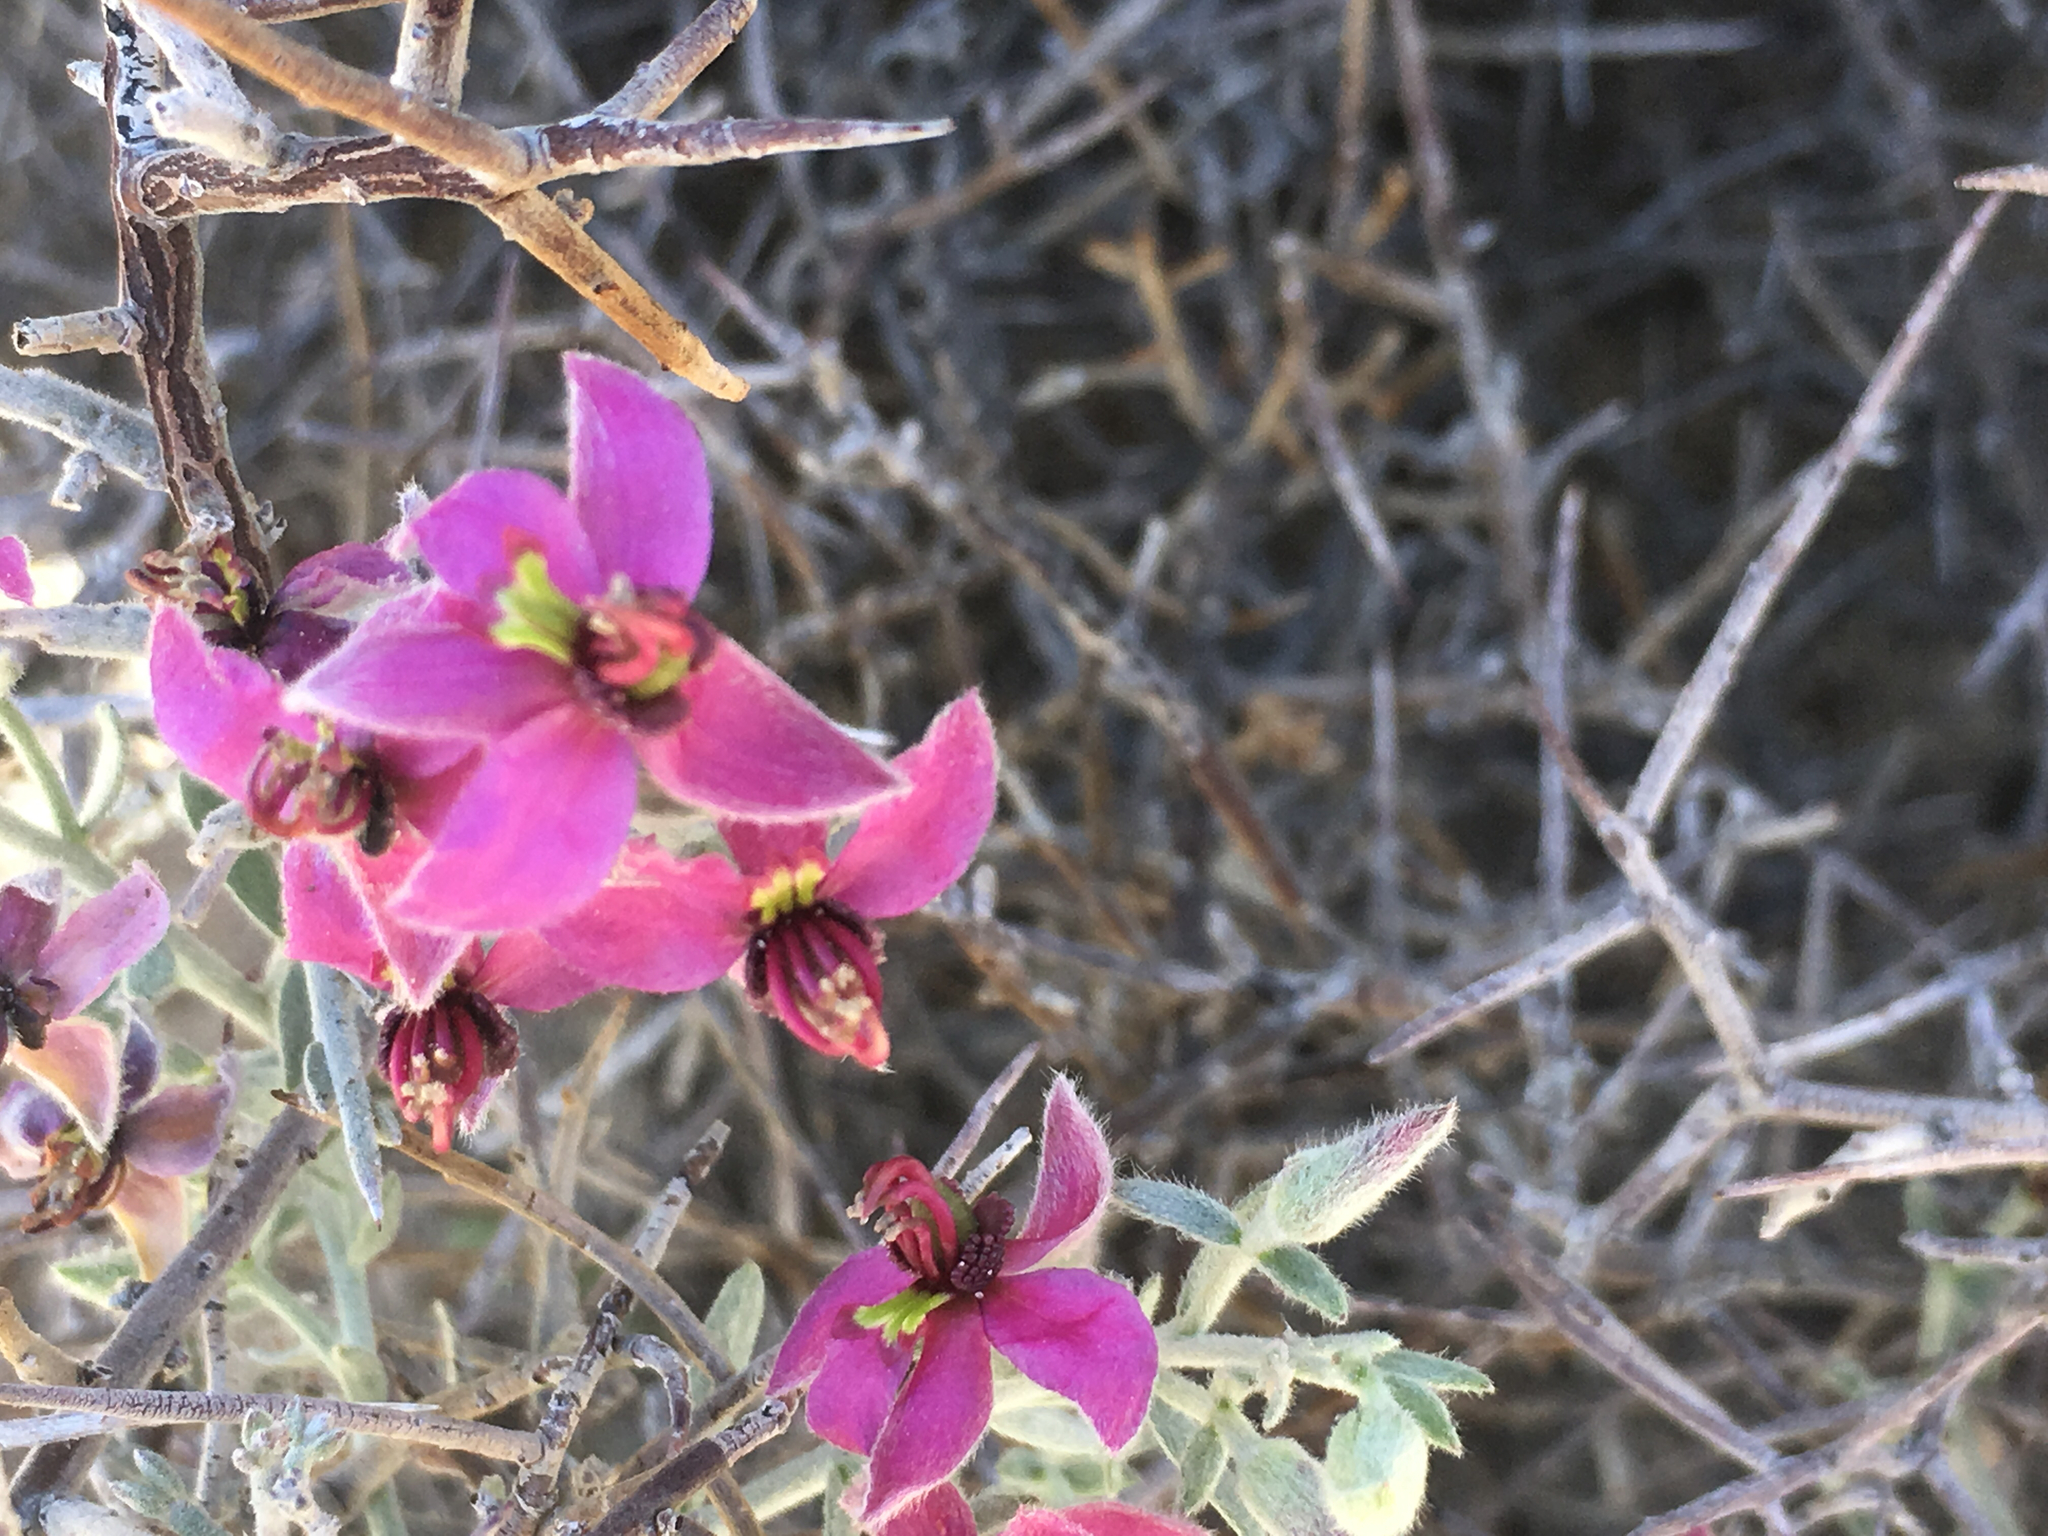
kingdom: Plantae
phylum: Tracheophyta
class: Magnoliopsida
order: Zygophyllales
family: Krameriaceae
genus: Krameria
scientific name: Krameria bicolor
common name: White ratany
